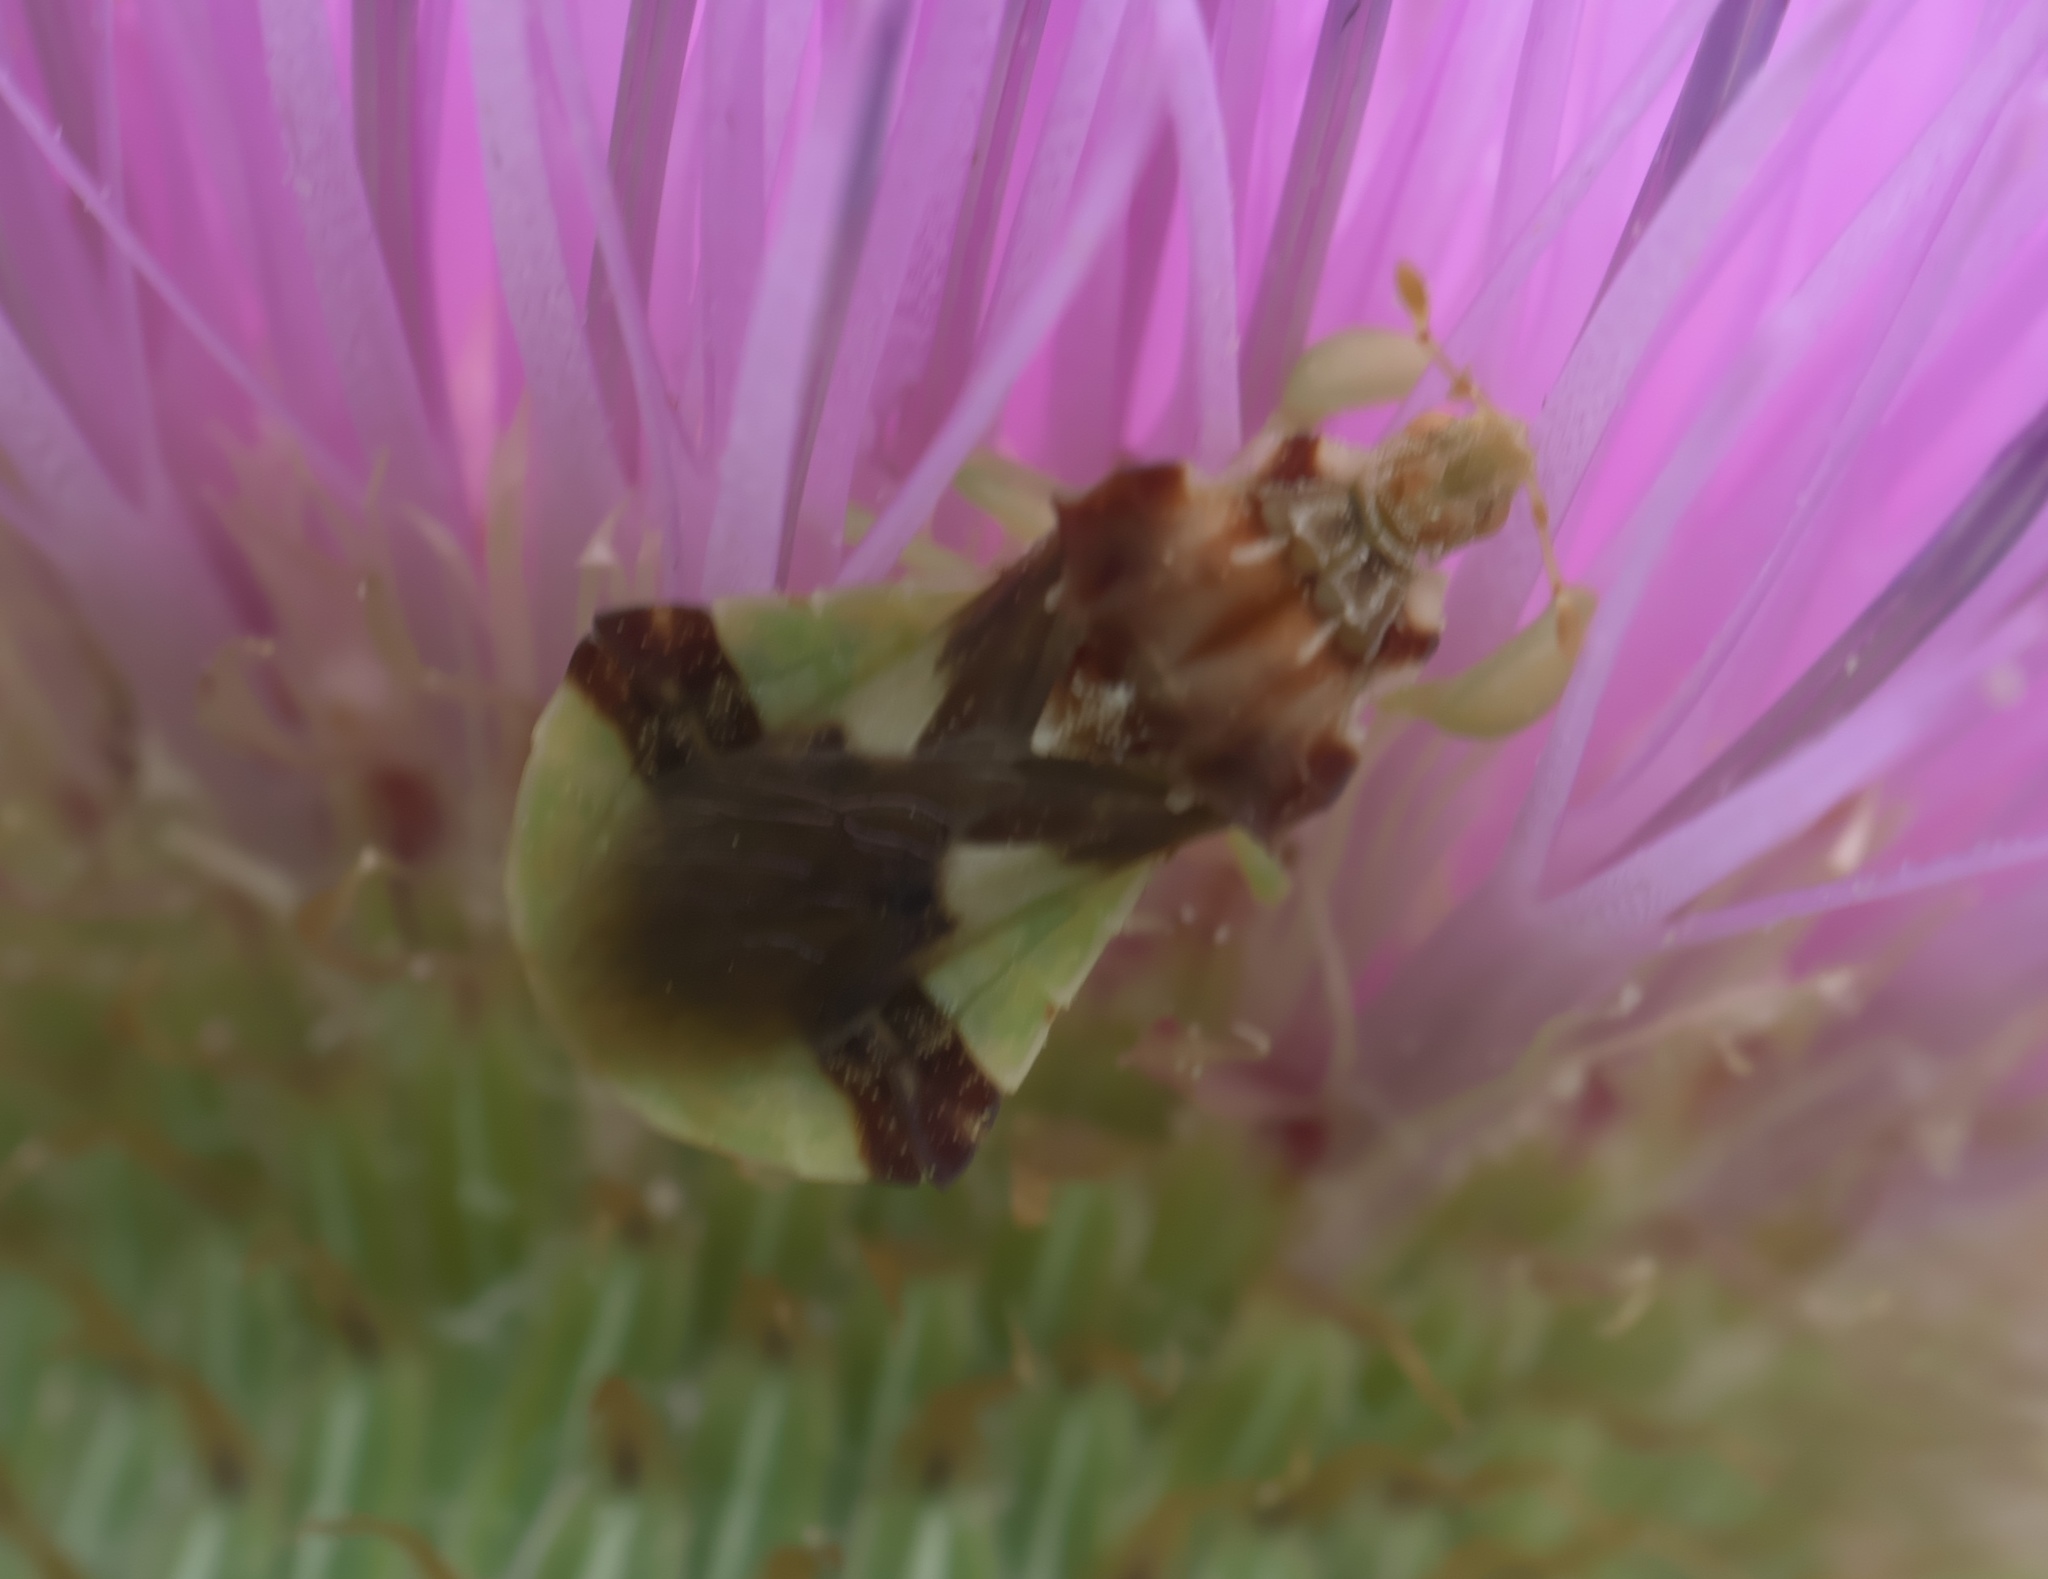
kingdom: Animalia
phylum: Arthropoda
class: Insecta
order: Hemiptera
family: Reduviidae
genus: Phymata
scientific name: Phymata americana
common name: Jagged ambush bug
